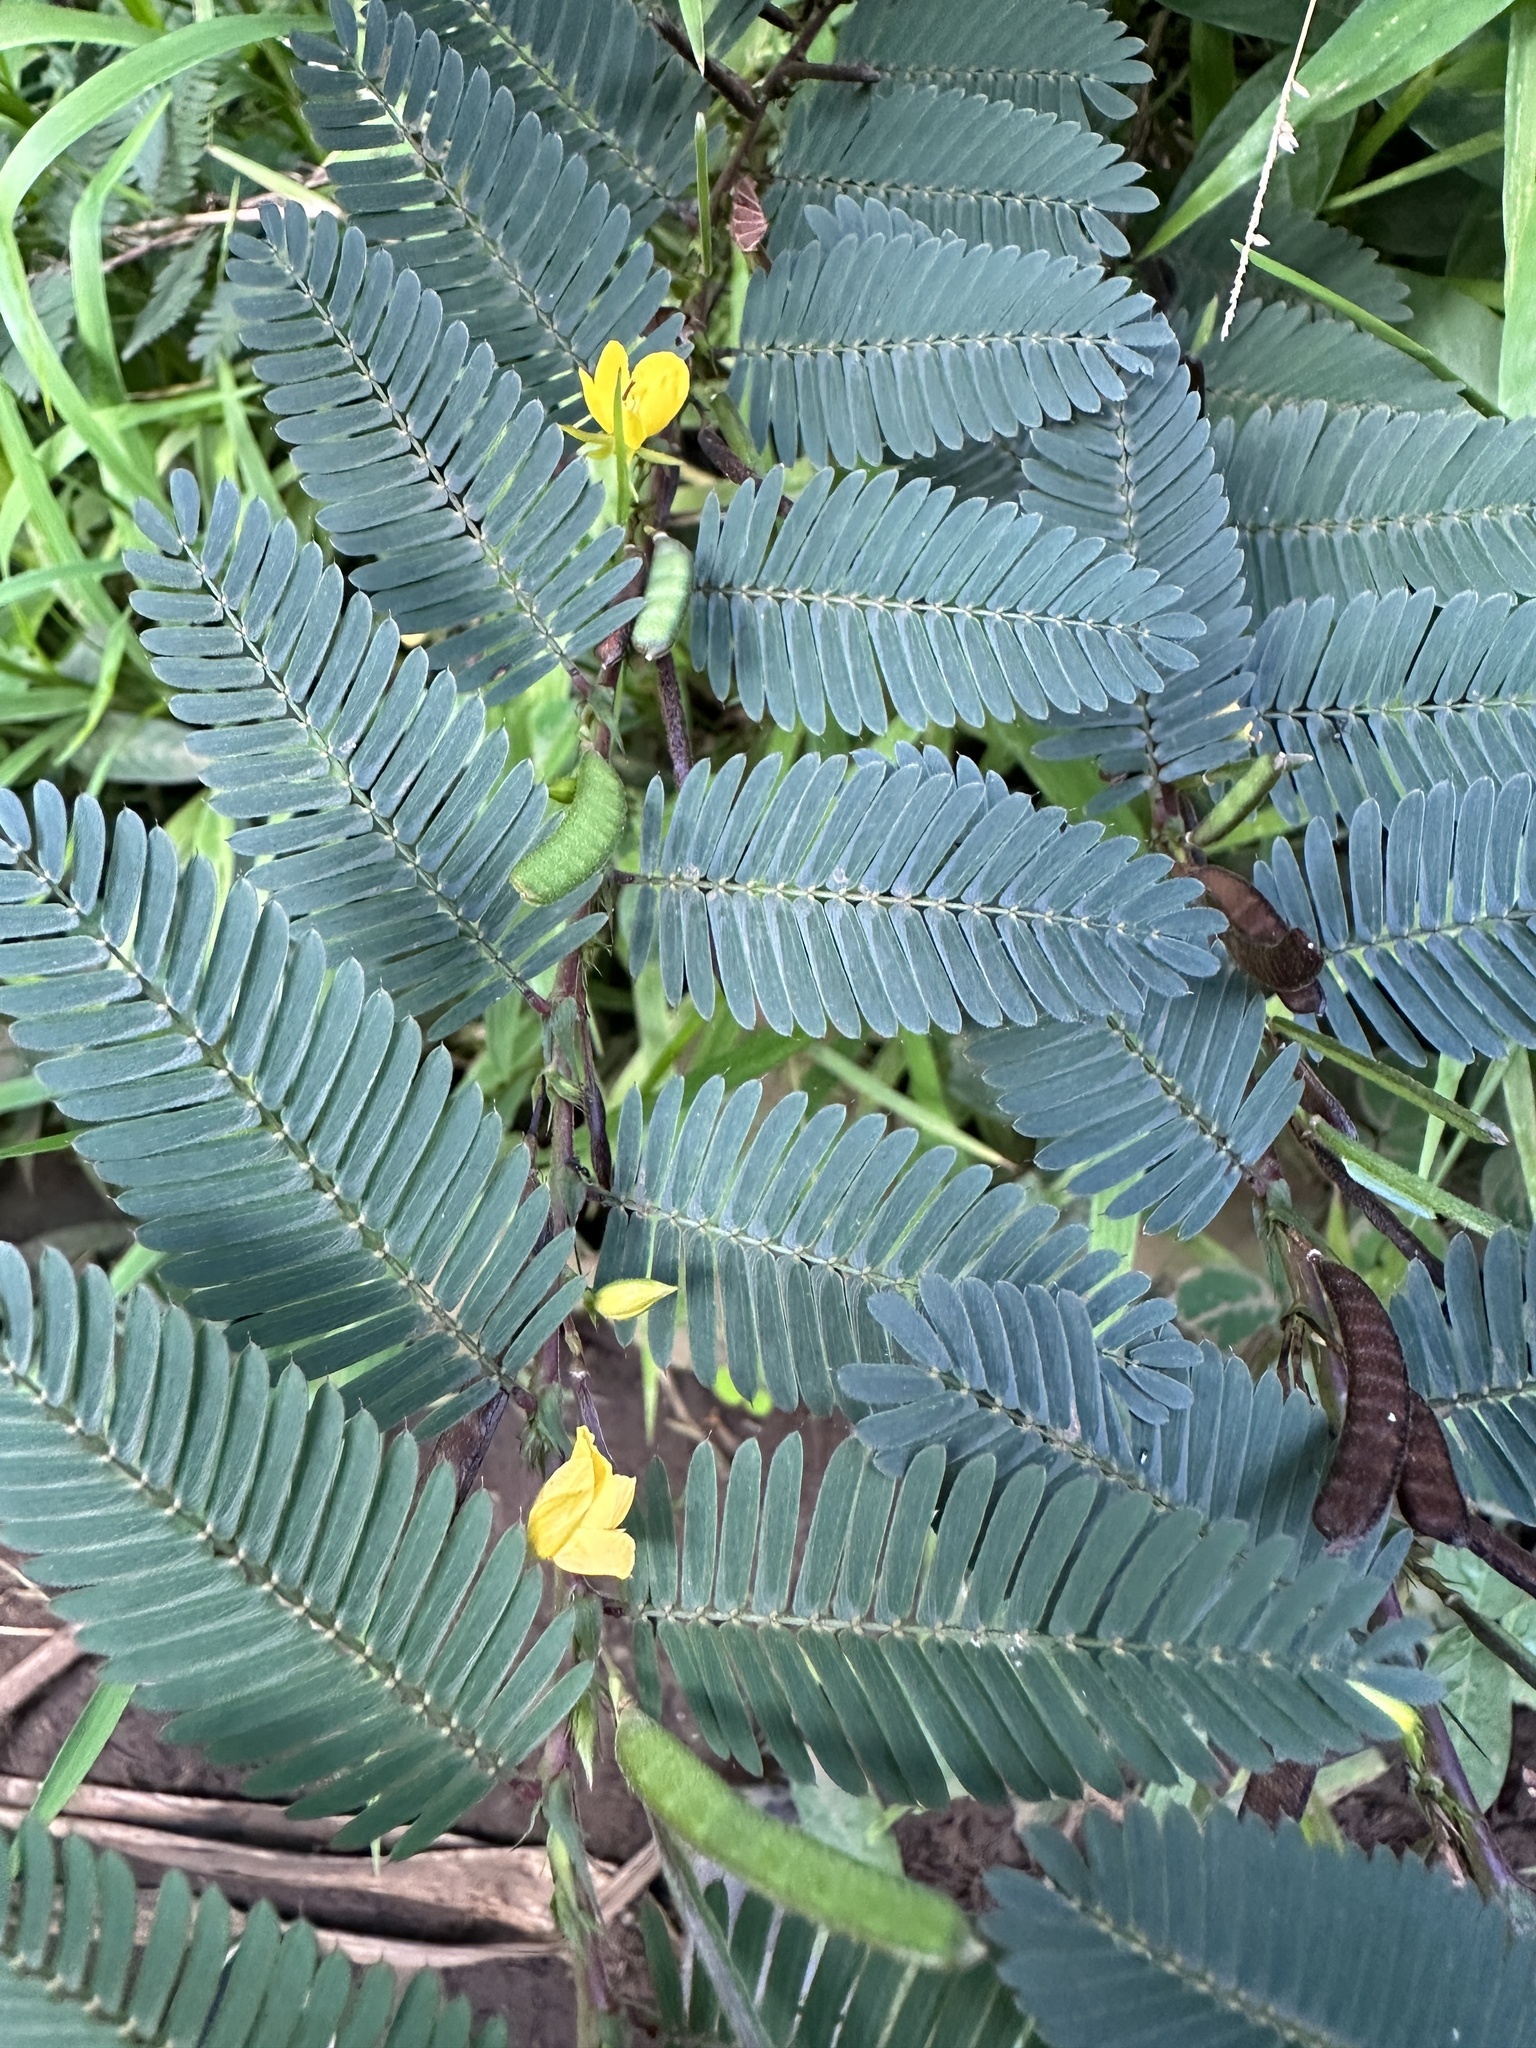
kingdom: Plantae
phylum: Tracheophyta
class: Magnoliopsida
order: Fabales
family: Fabaceae
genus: Chamaecrista
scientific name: Chamaecrista nictitans
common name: Sensitive cassia
